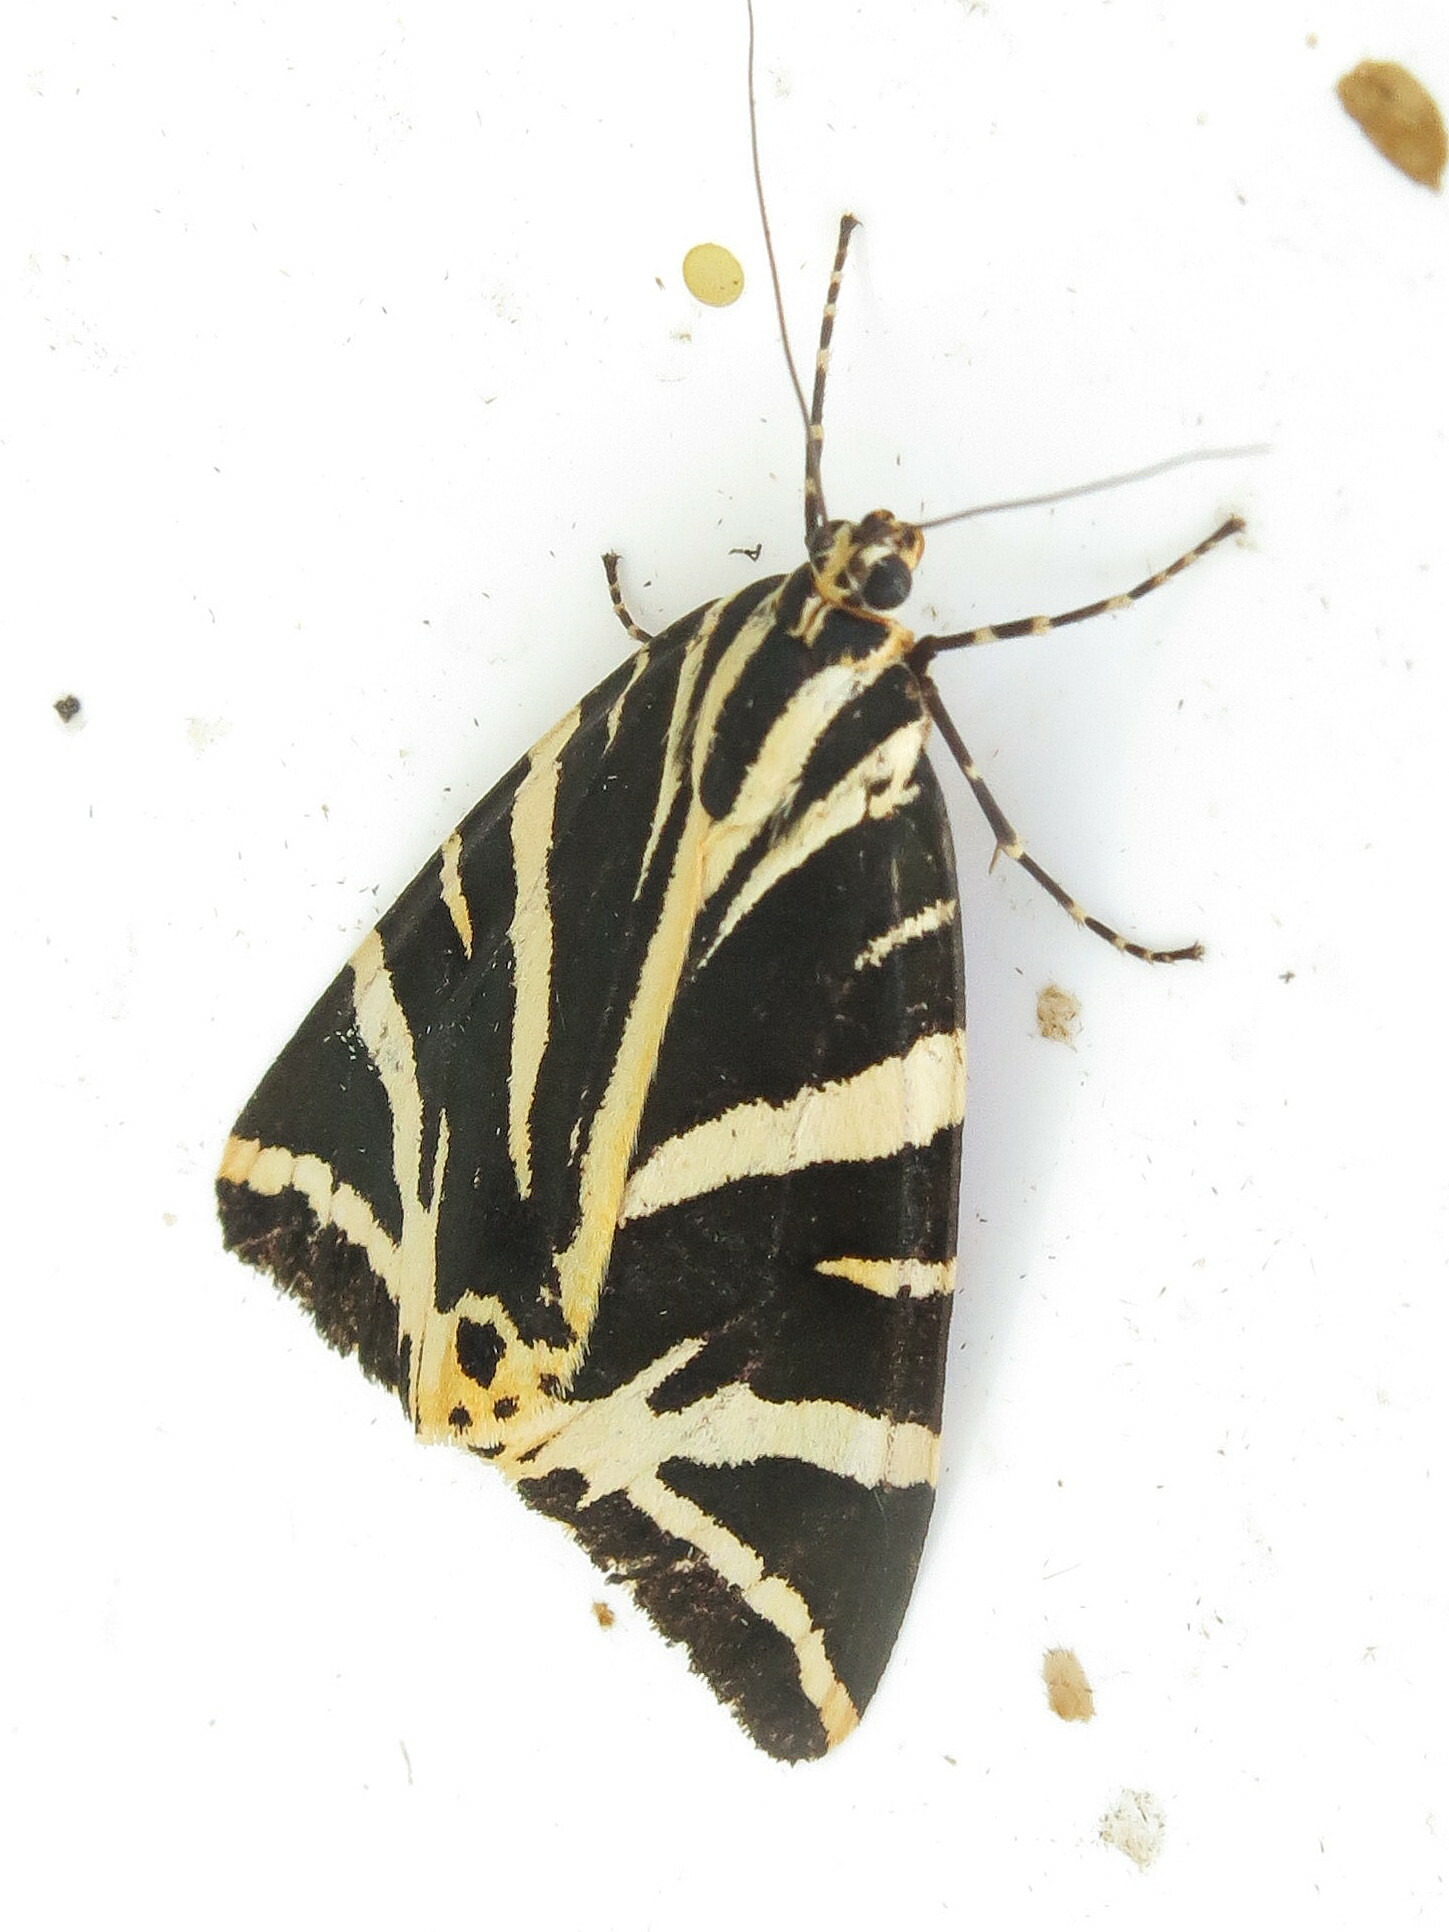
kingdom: Animalia
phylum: Arthropoda
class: Insecta
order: Lepidoptera
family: Erebidae
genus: Euplagia
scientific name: Euplagia quadripunctaria
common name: Jersey tiger
